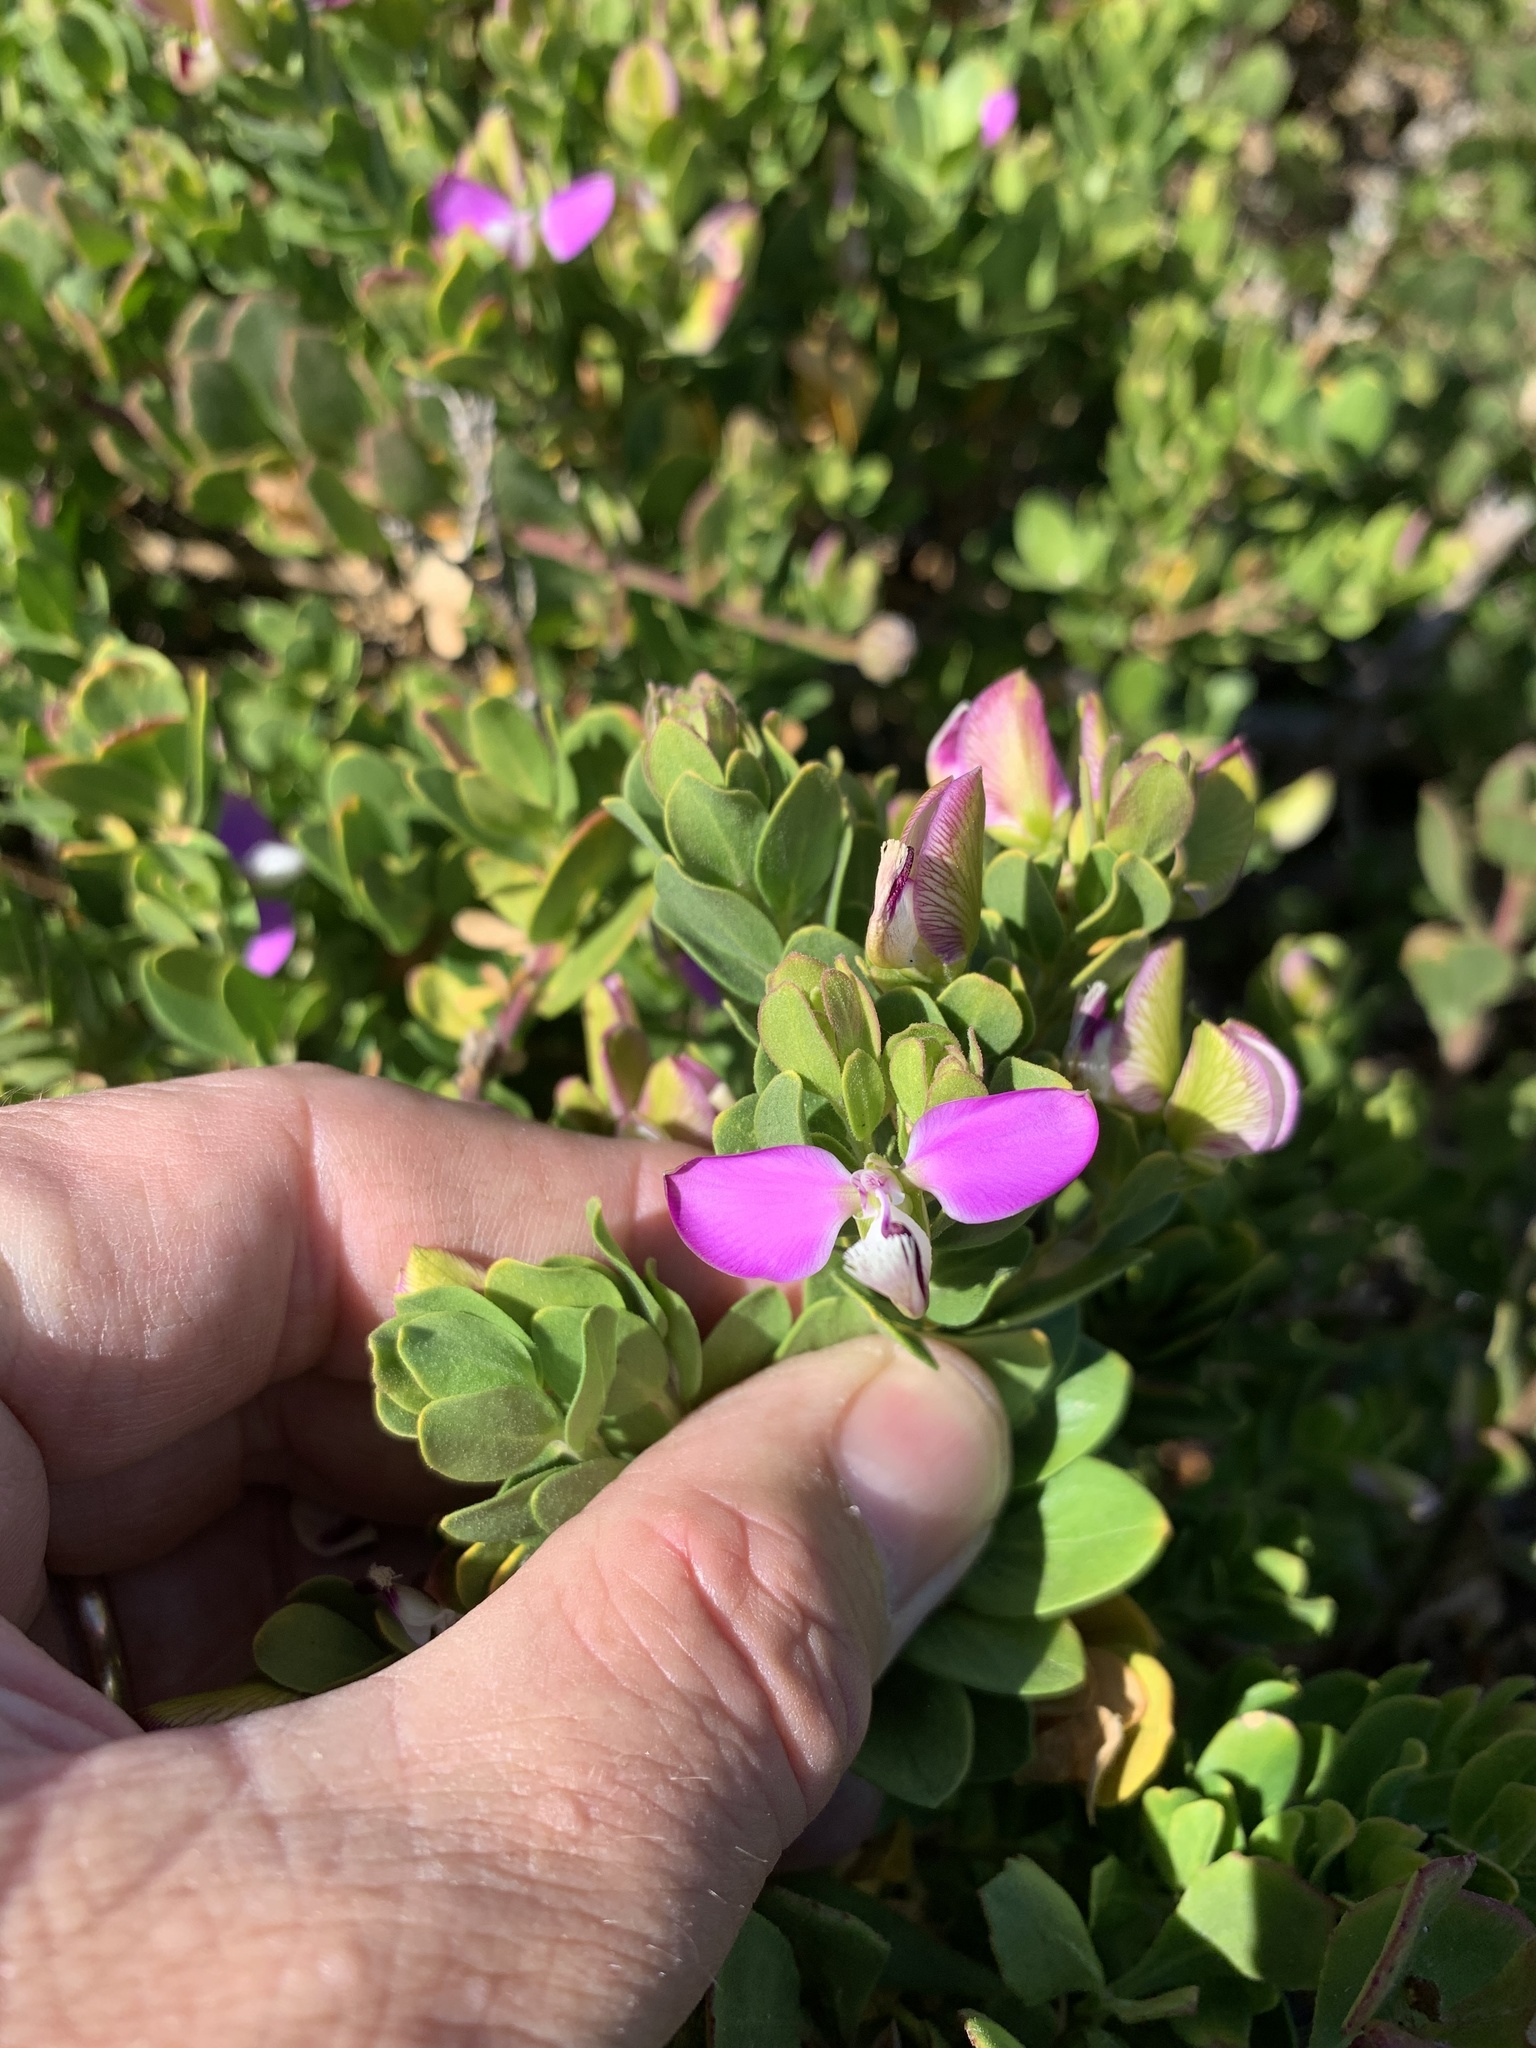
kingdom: Plantae
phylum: Tracheophyta
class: Magnoliopsida
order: Fabales
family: Polygalaceae
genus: Polygala
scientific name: Polygala myrtifolia
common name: Myrtle-leaf milkwort
